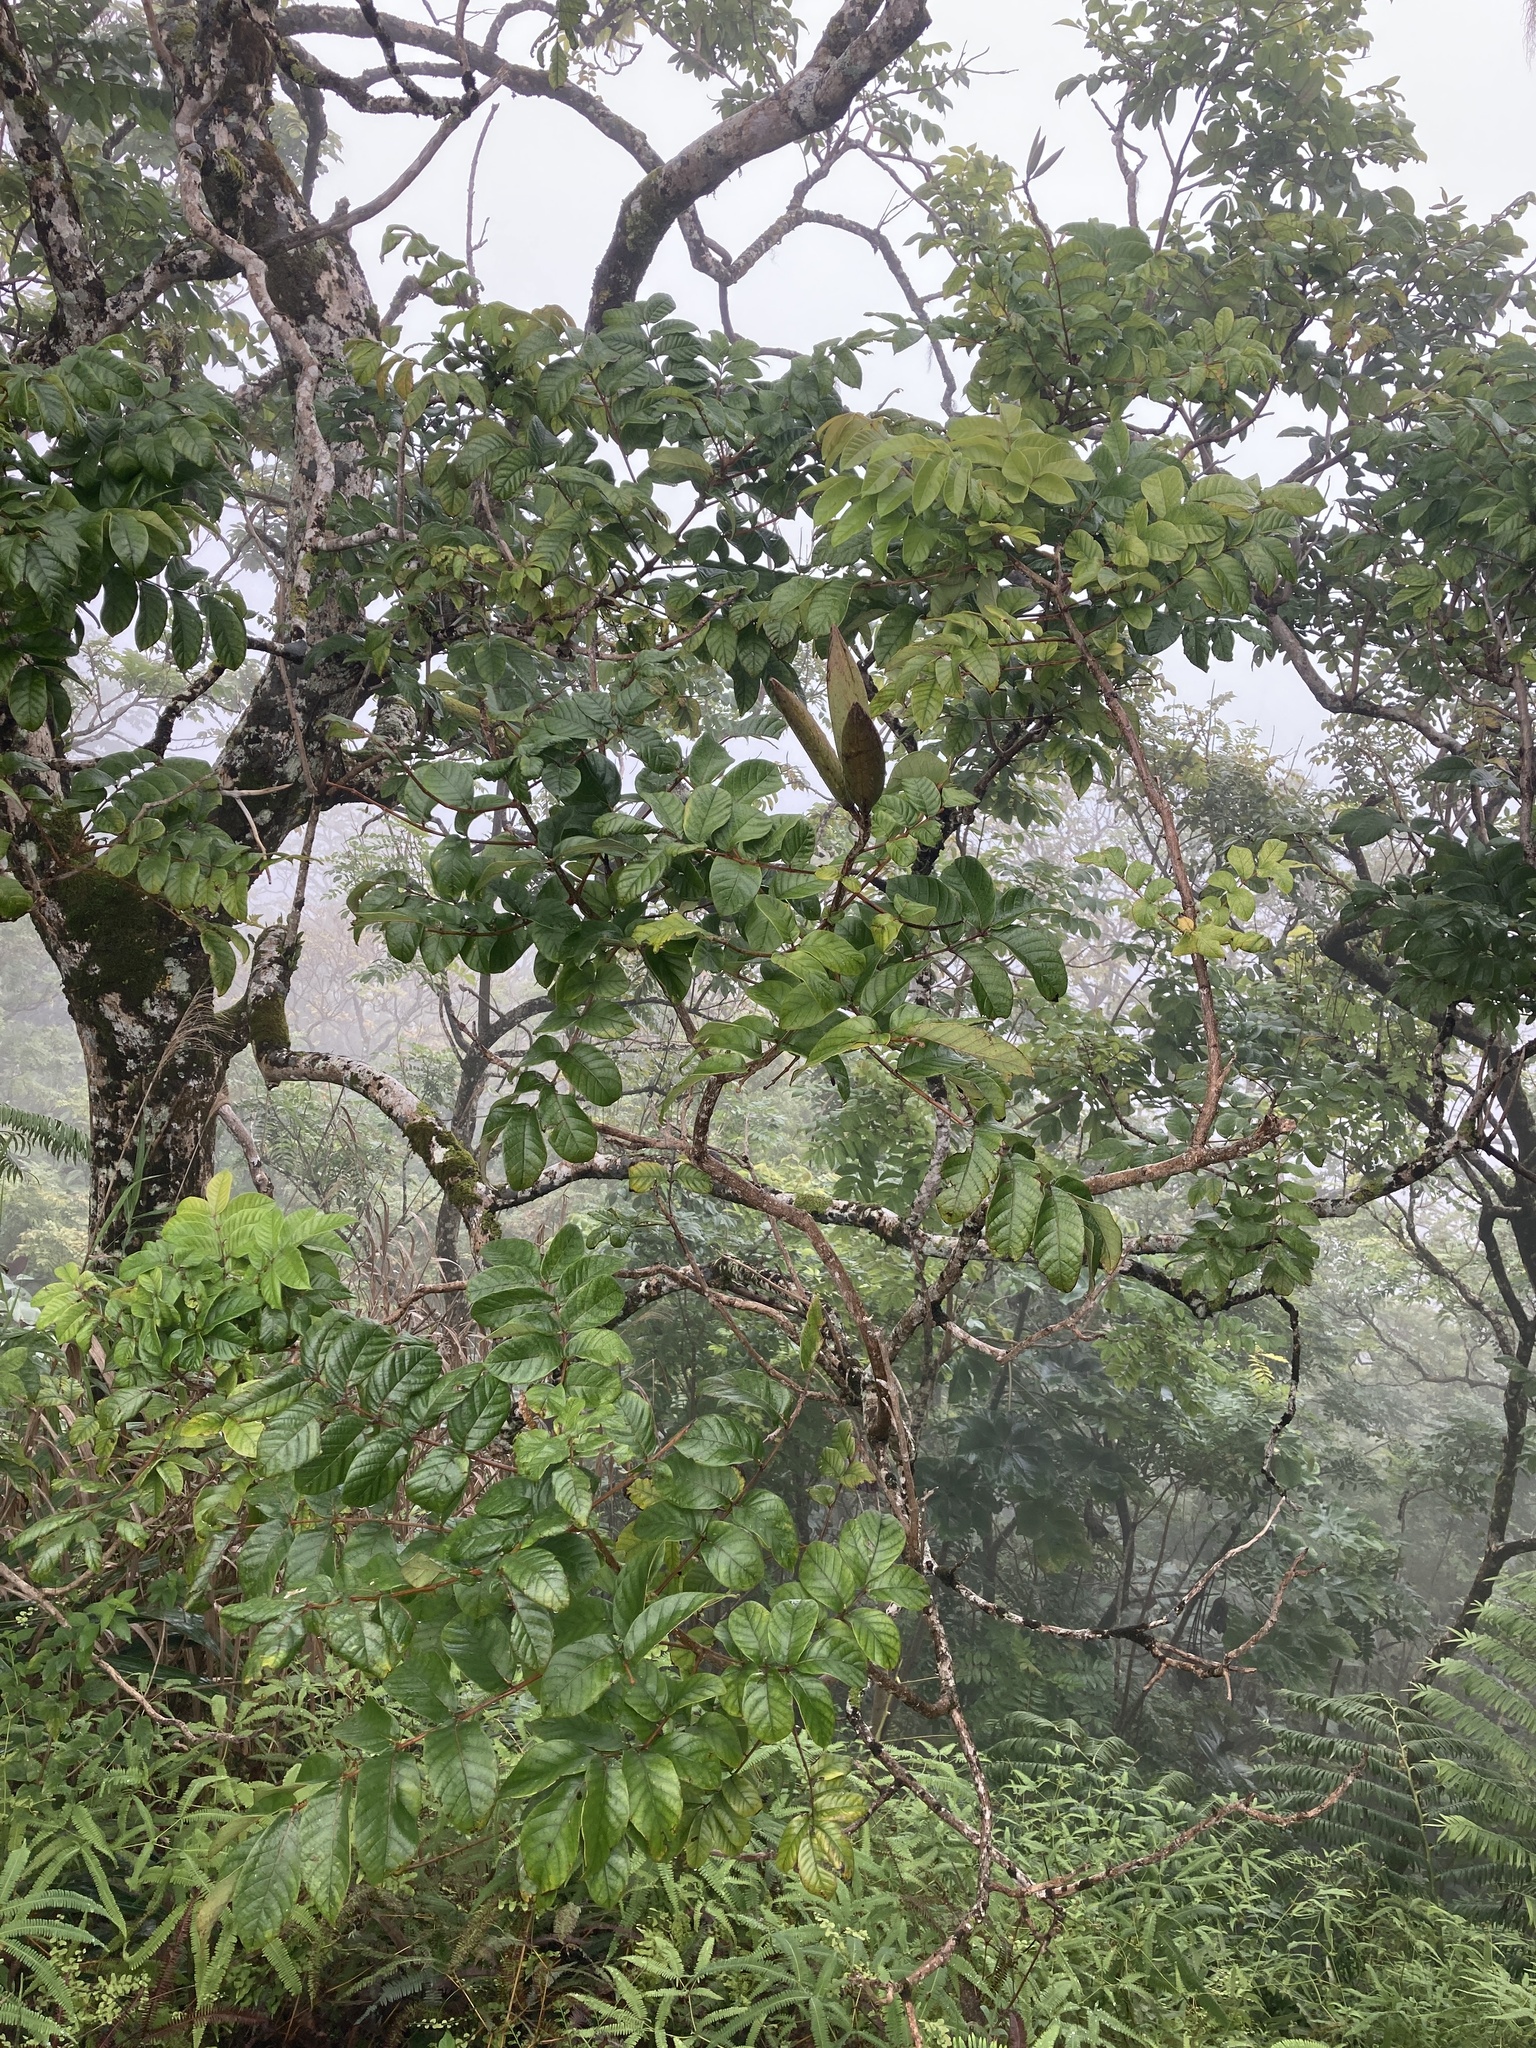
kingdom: Plantae
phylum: Tracheophyta
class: Magnoliopsida
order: Lamiales
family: Bignoniaceae
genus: Spathodea
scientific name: Spathodea campanulata
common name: African tuliptree
